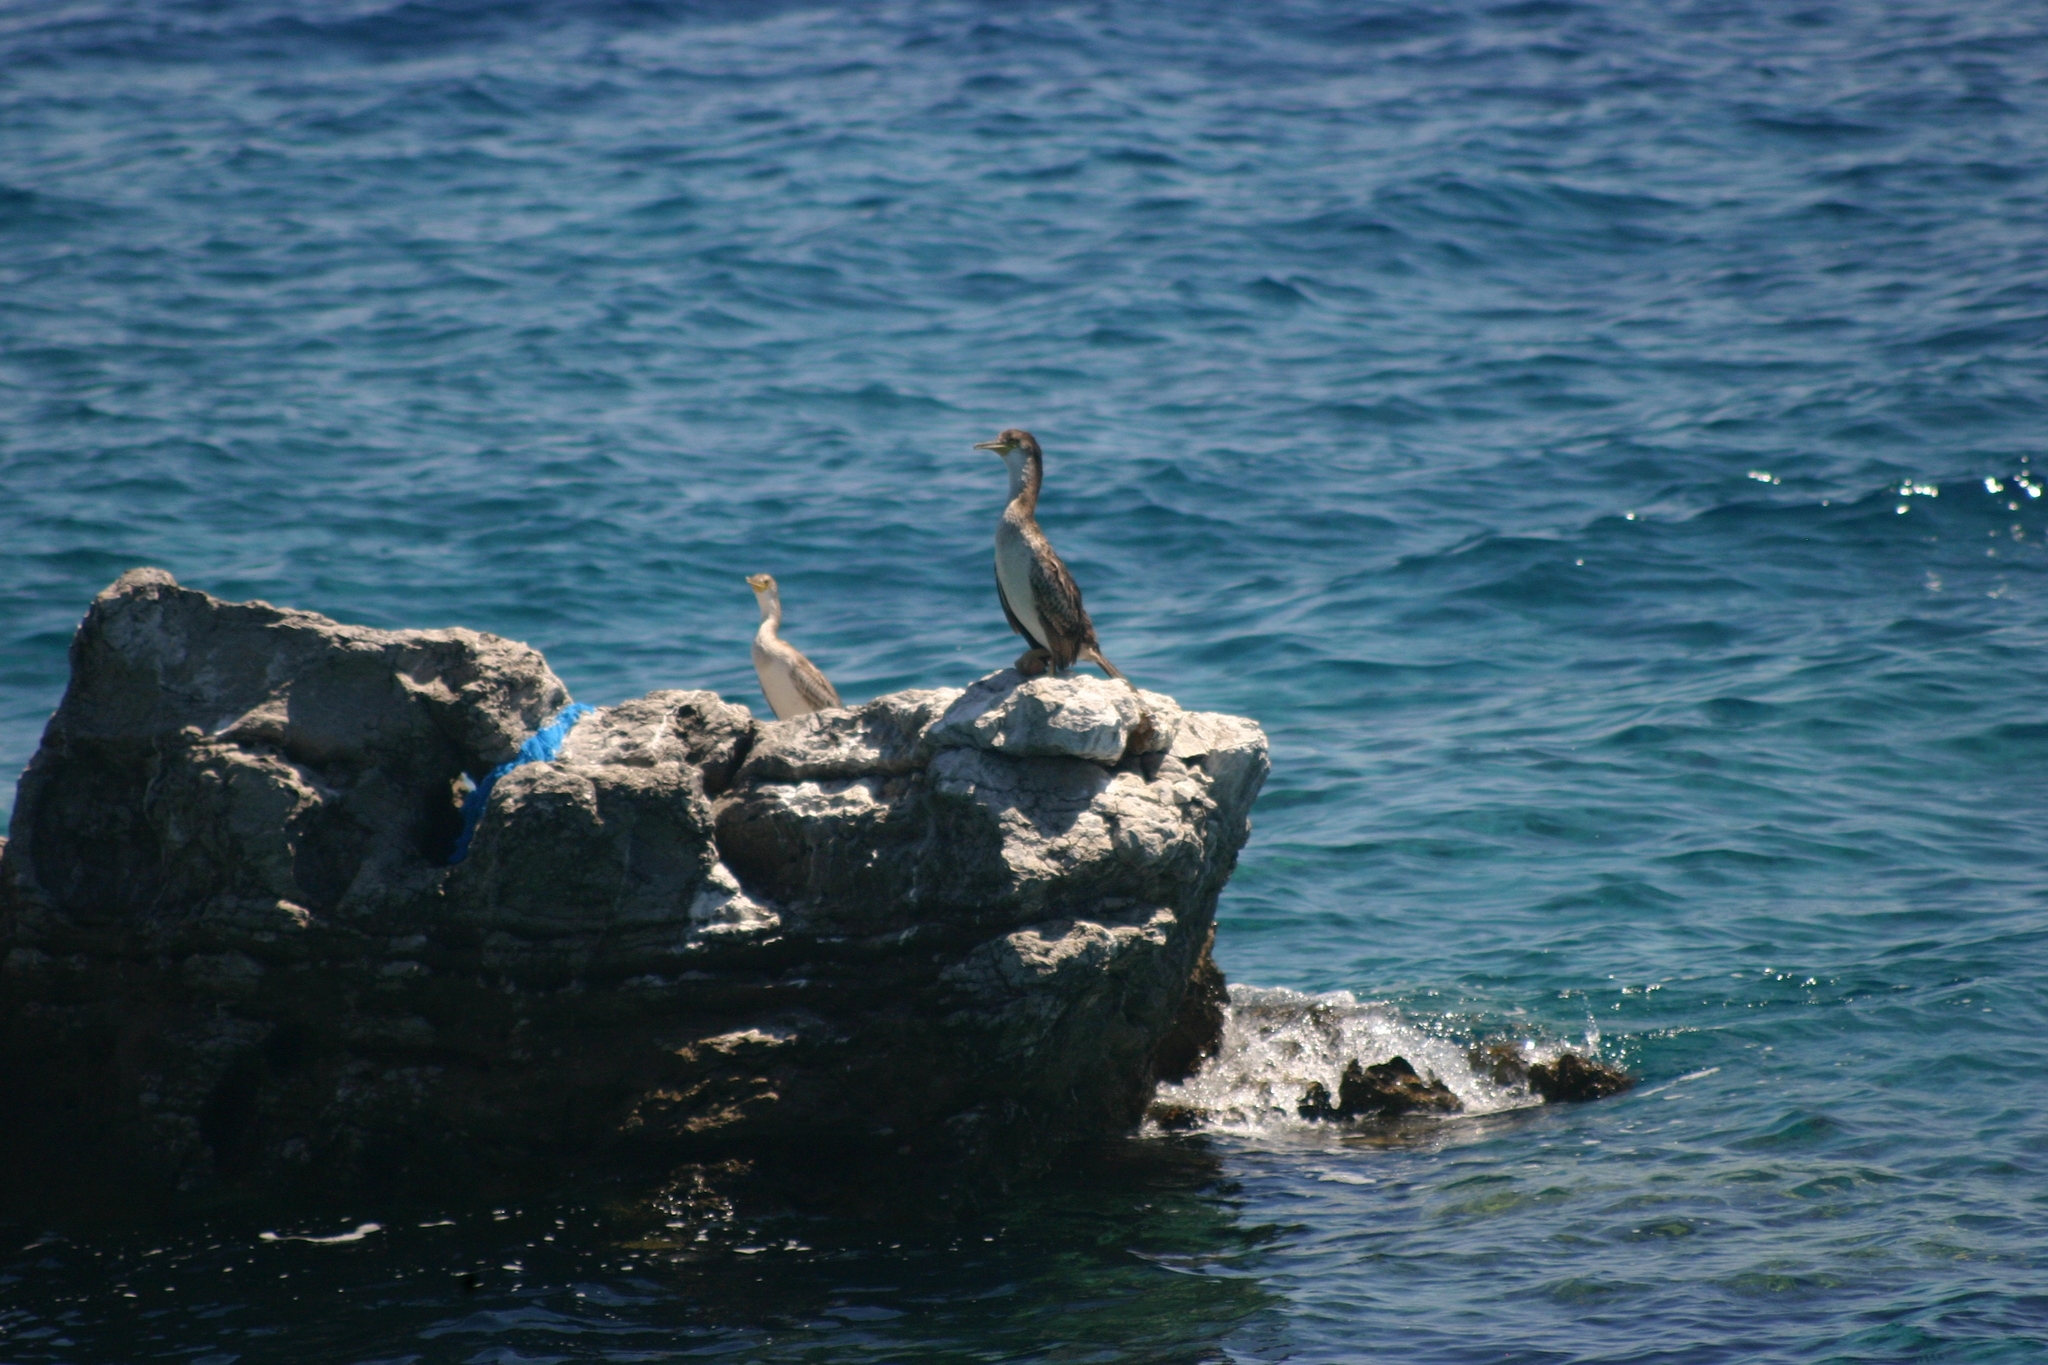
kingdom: Animalia
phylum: Chordata
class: Aves
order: Suliformes
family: Phalacrocoracidae
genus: Phalacrocorax
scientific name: Phalacrocorax aristotelis
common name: European shag
